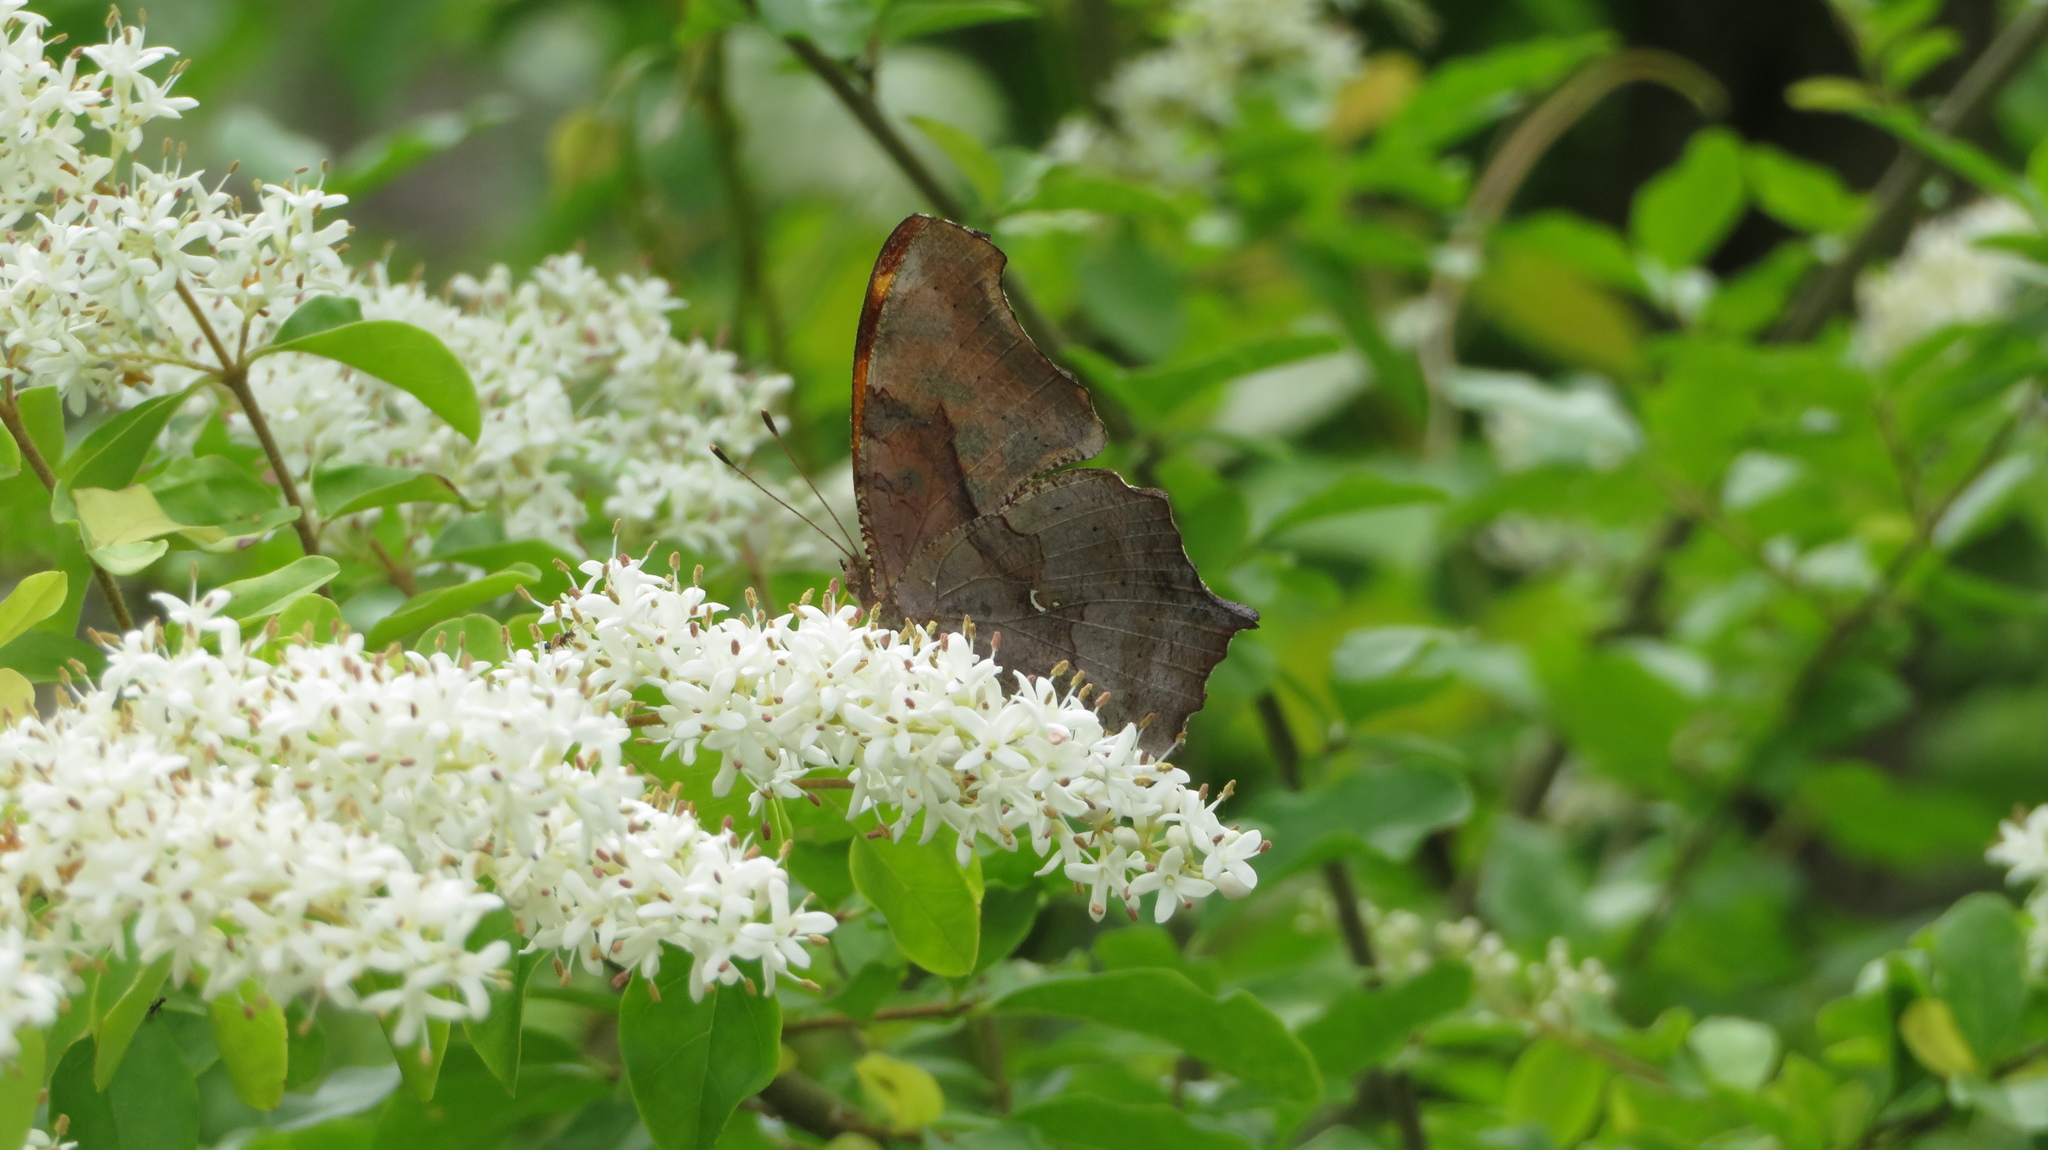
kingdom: Animalia
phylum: Arthropoda
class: Insecta
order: Lepidoptera
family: Nymphalidae
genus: Polygonia
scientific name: Polygonia interrogationis
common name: Question mark
